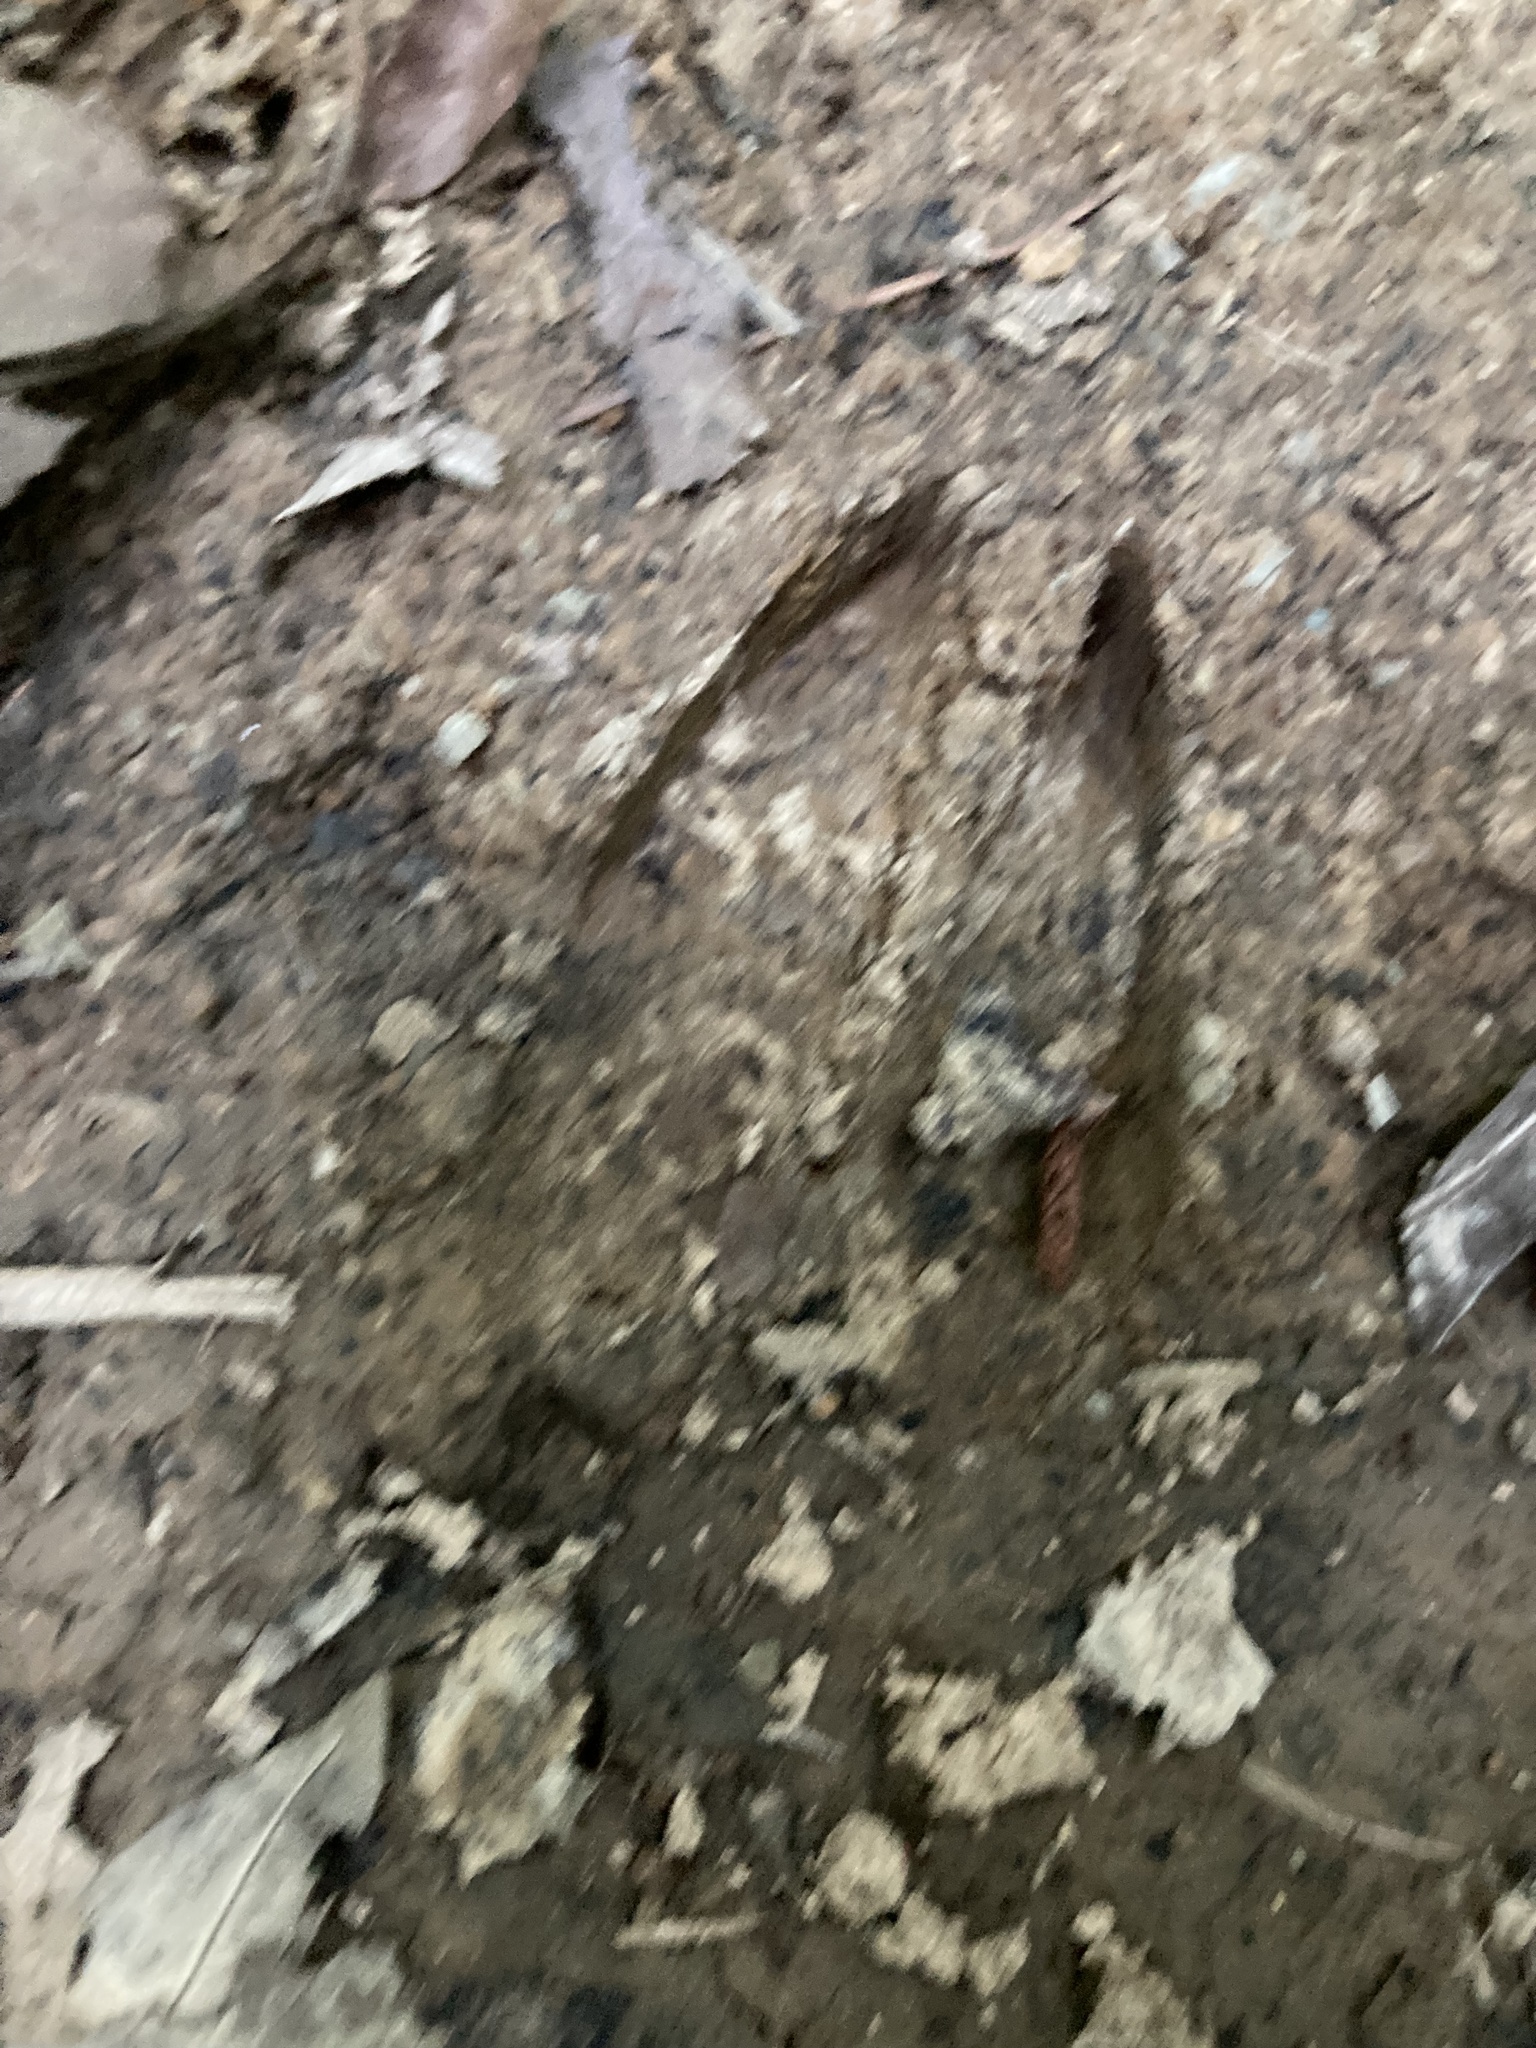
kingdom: Animalia
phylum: Chordata
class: Mammalia
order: Artiodactyla
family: Cervidae
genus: Odocoileus
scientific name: Odocoileus virginianus
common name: White-tailed deer
